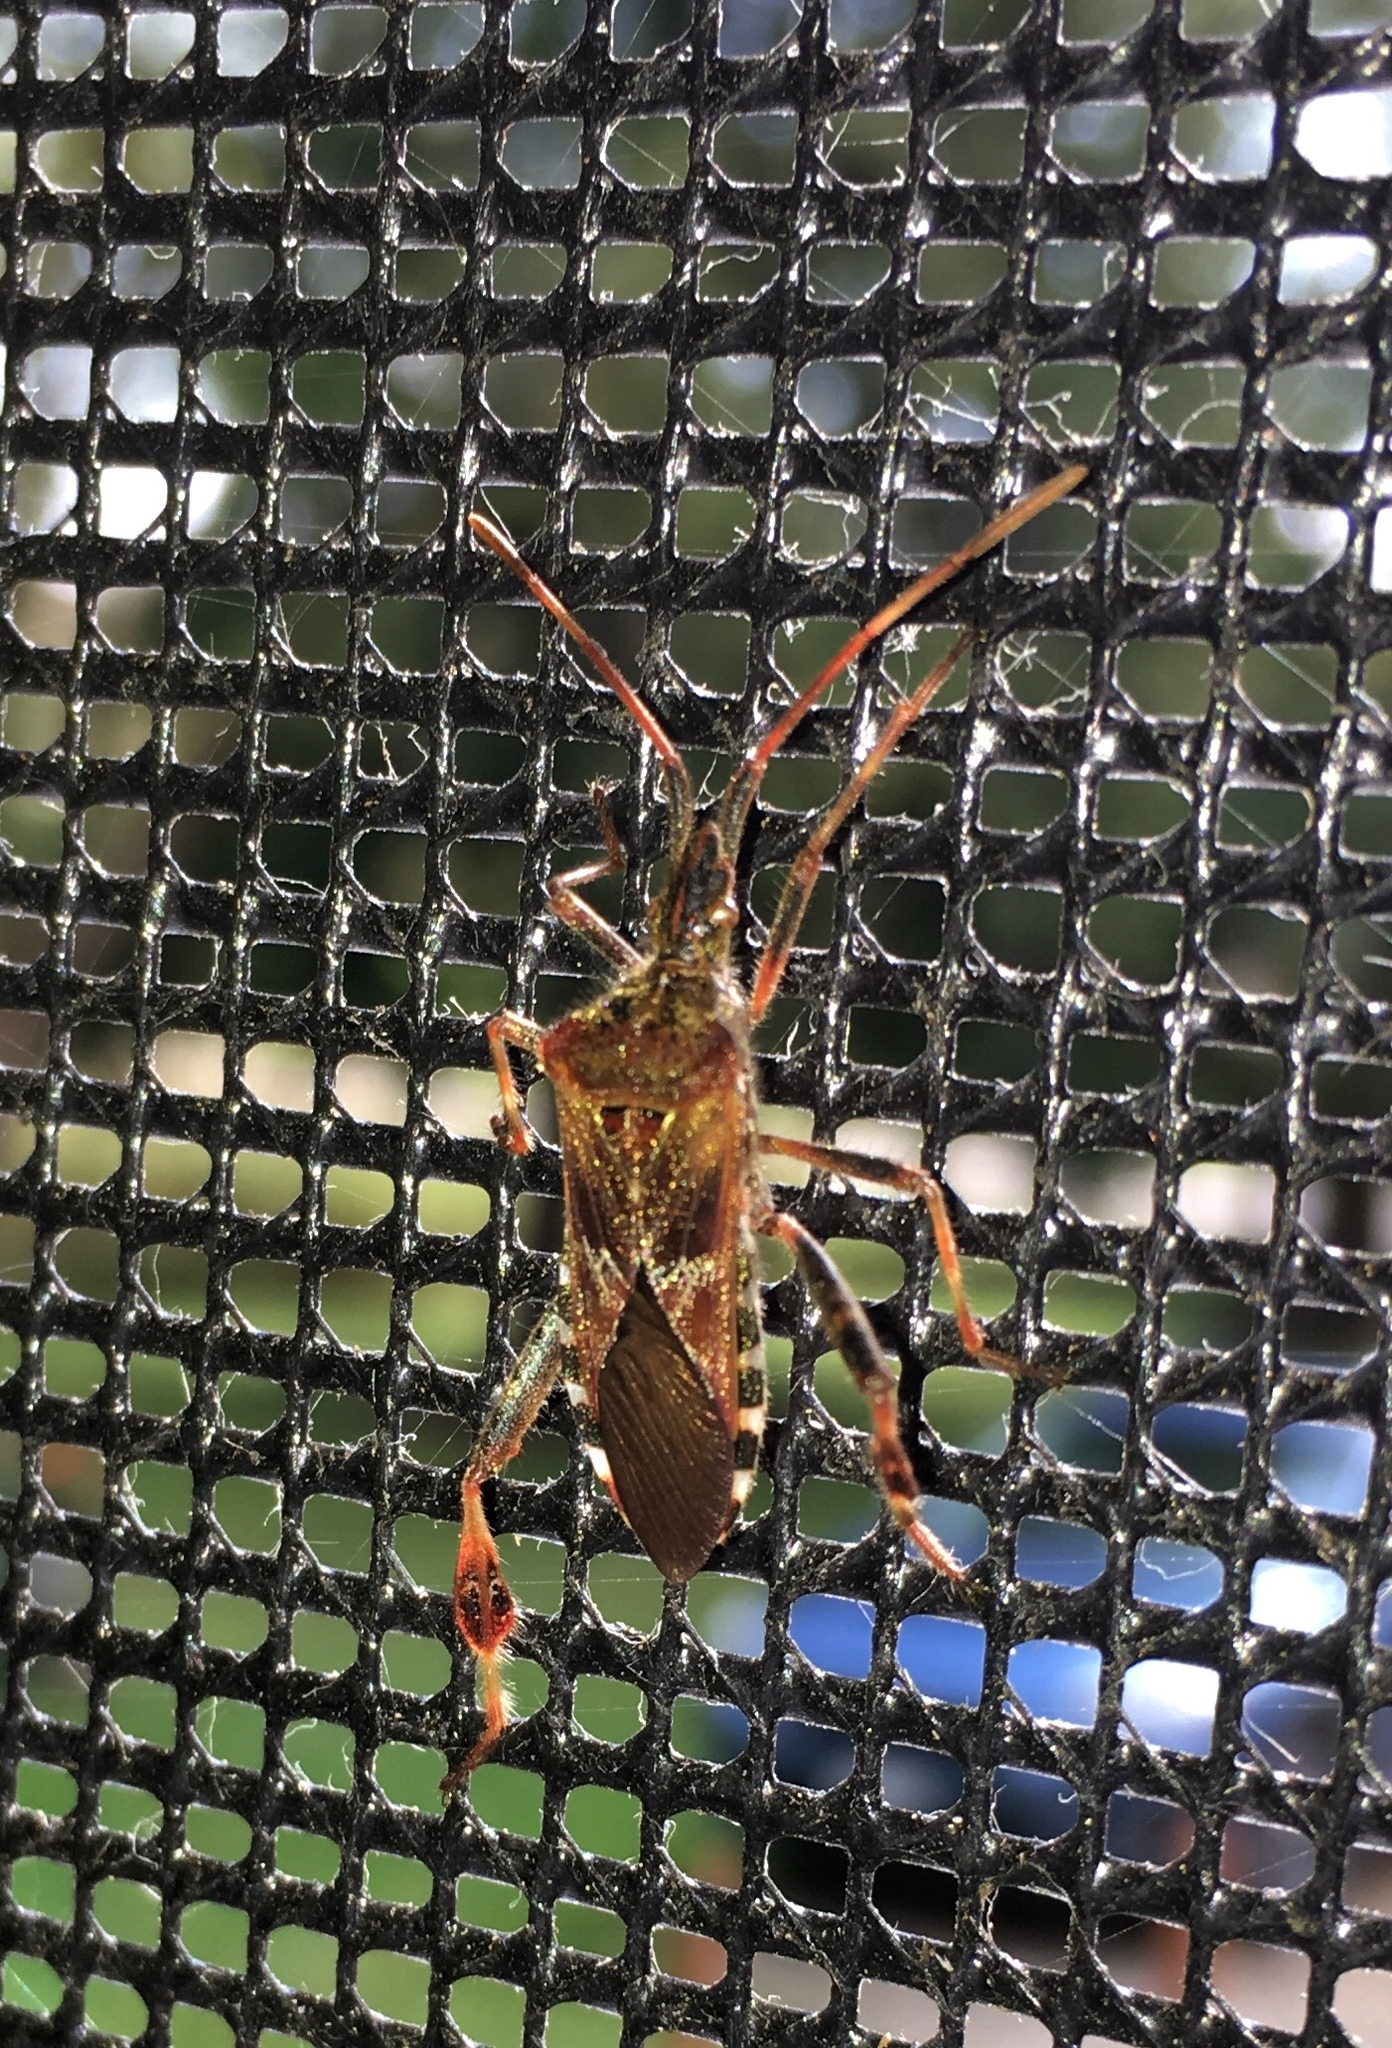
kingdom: Animalia
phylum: Arthropoda
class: Insecta
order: Hemiptera
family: Coreidae
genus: Leptoglossus
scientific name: Leptoglossus occidentalis
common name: Western conifer-seed bug
